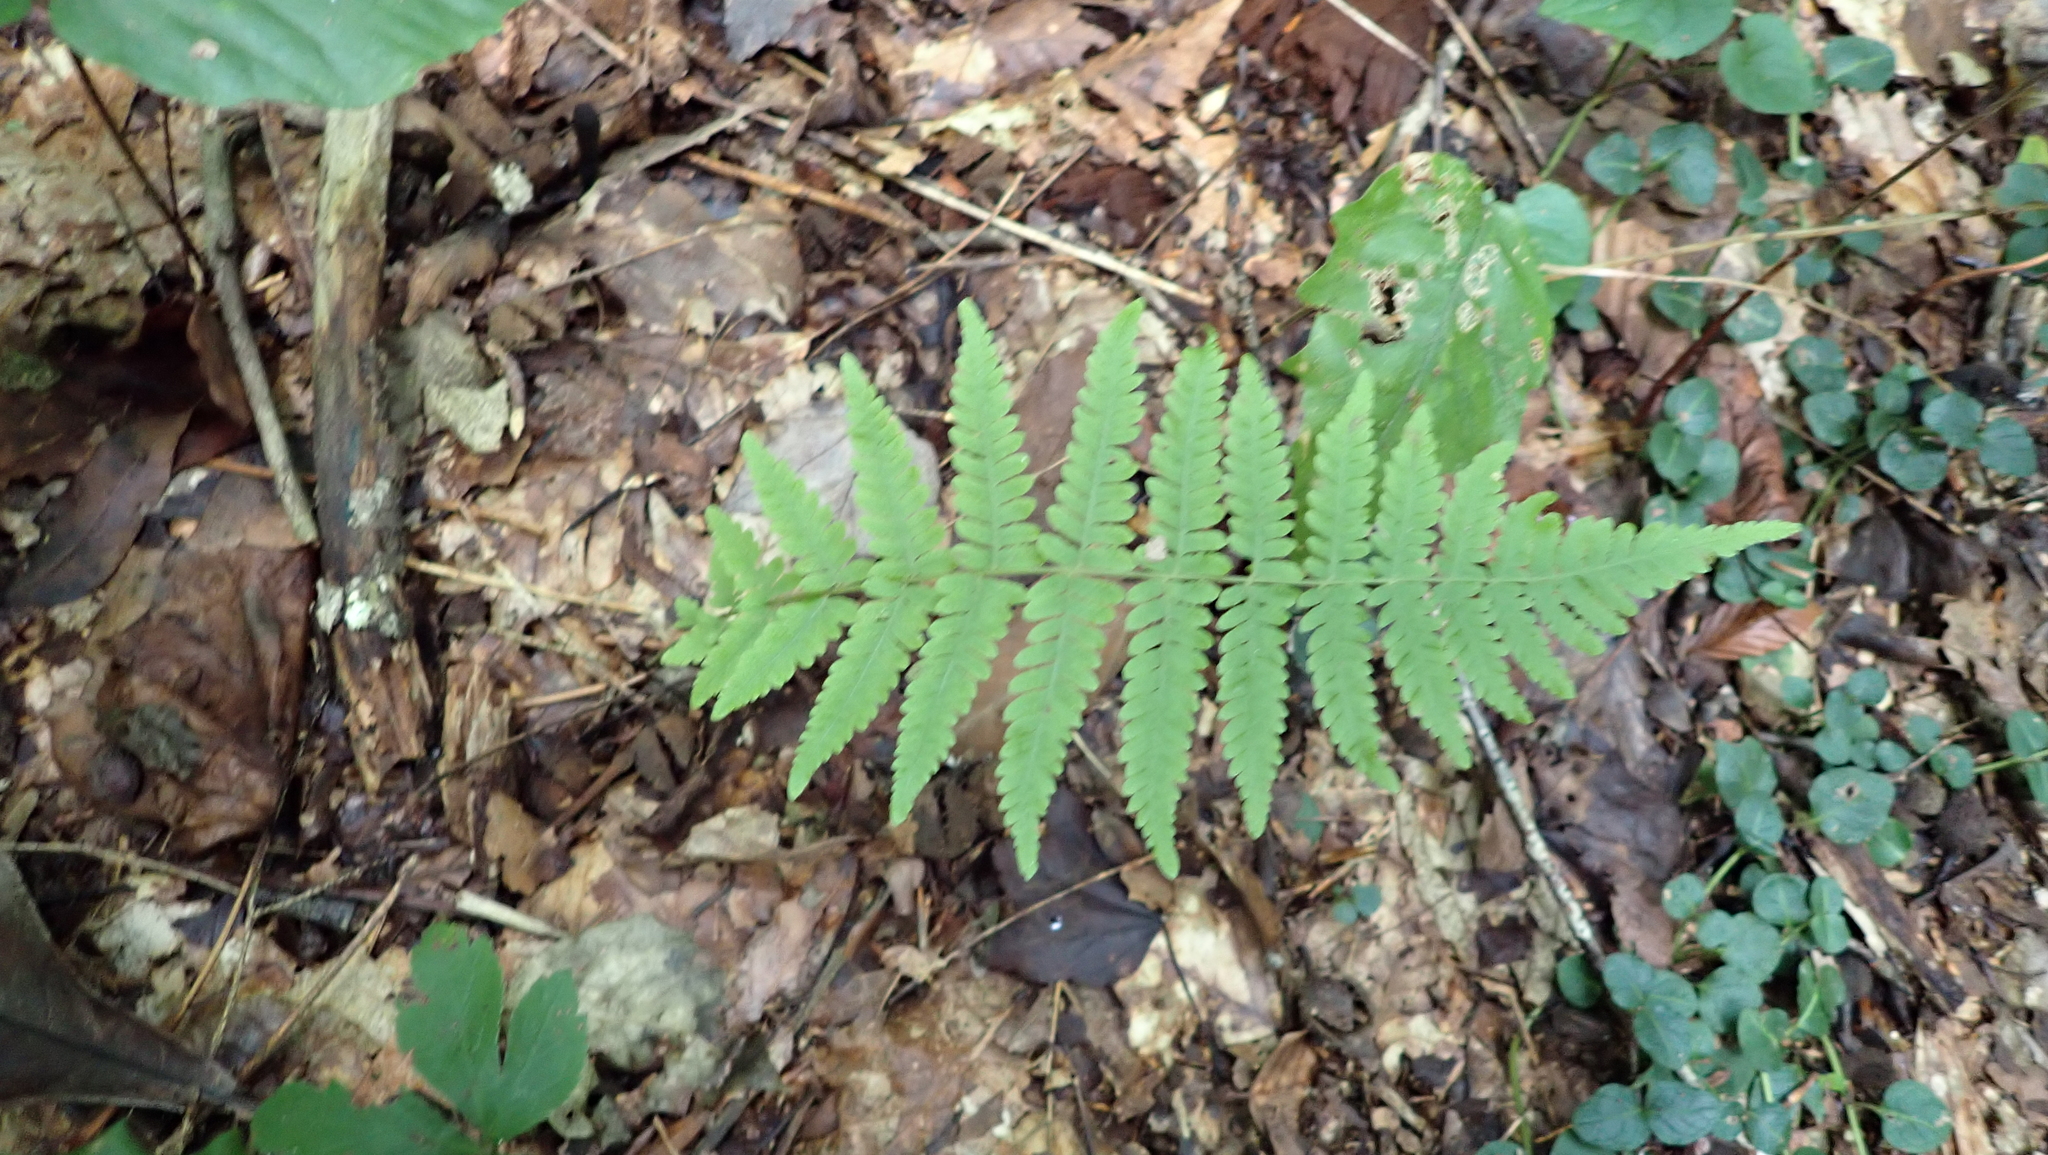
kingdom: Plantae
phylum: Tracheophyta
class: Polypodiopsida
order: Polypodiales
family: Thelypteridaceae
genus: Amauropelta
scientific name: Amauropelta noveboracensis
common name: New york fern
